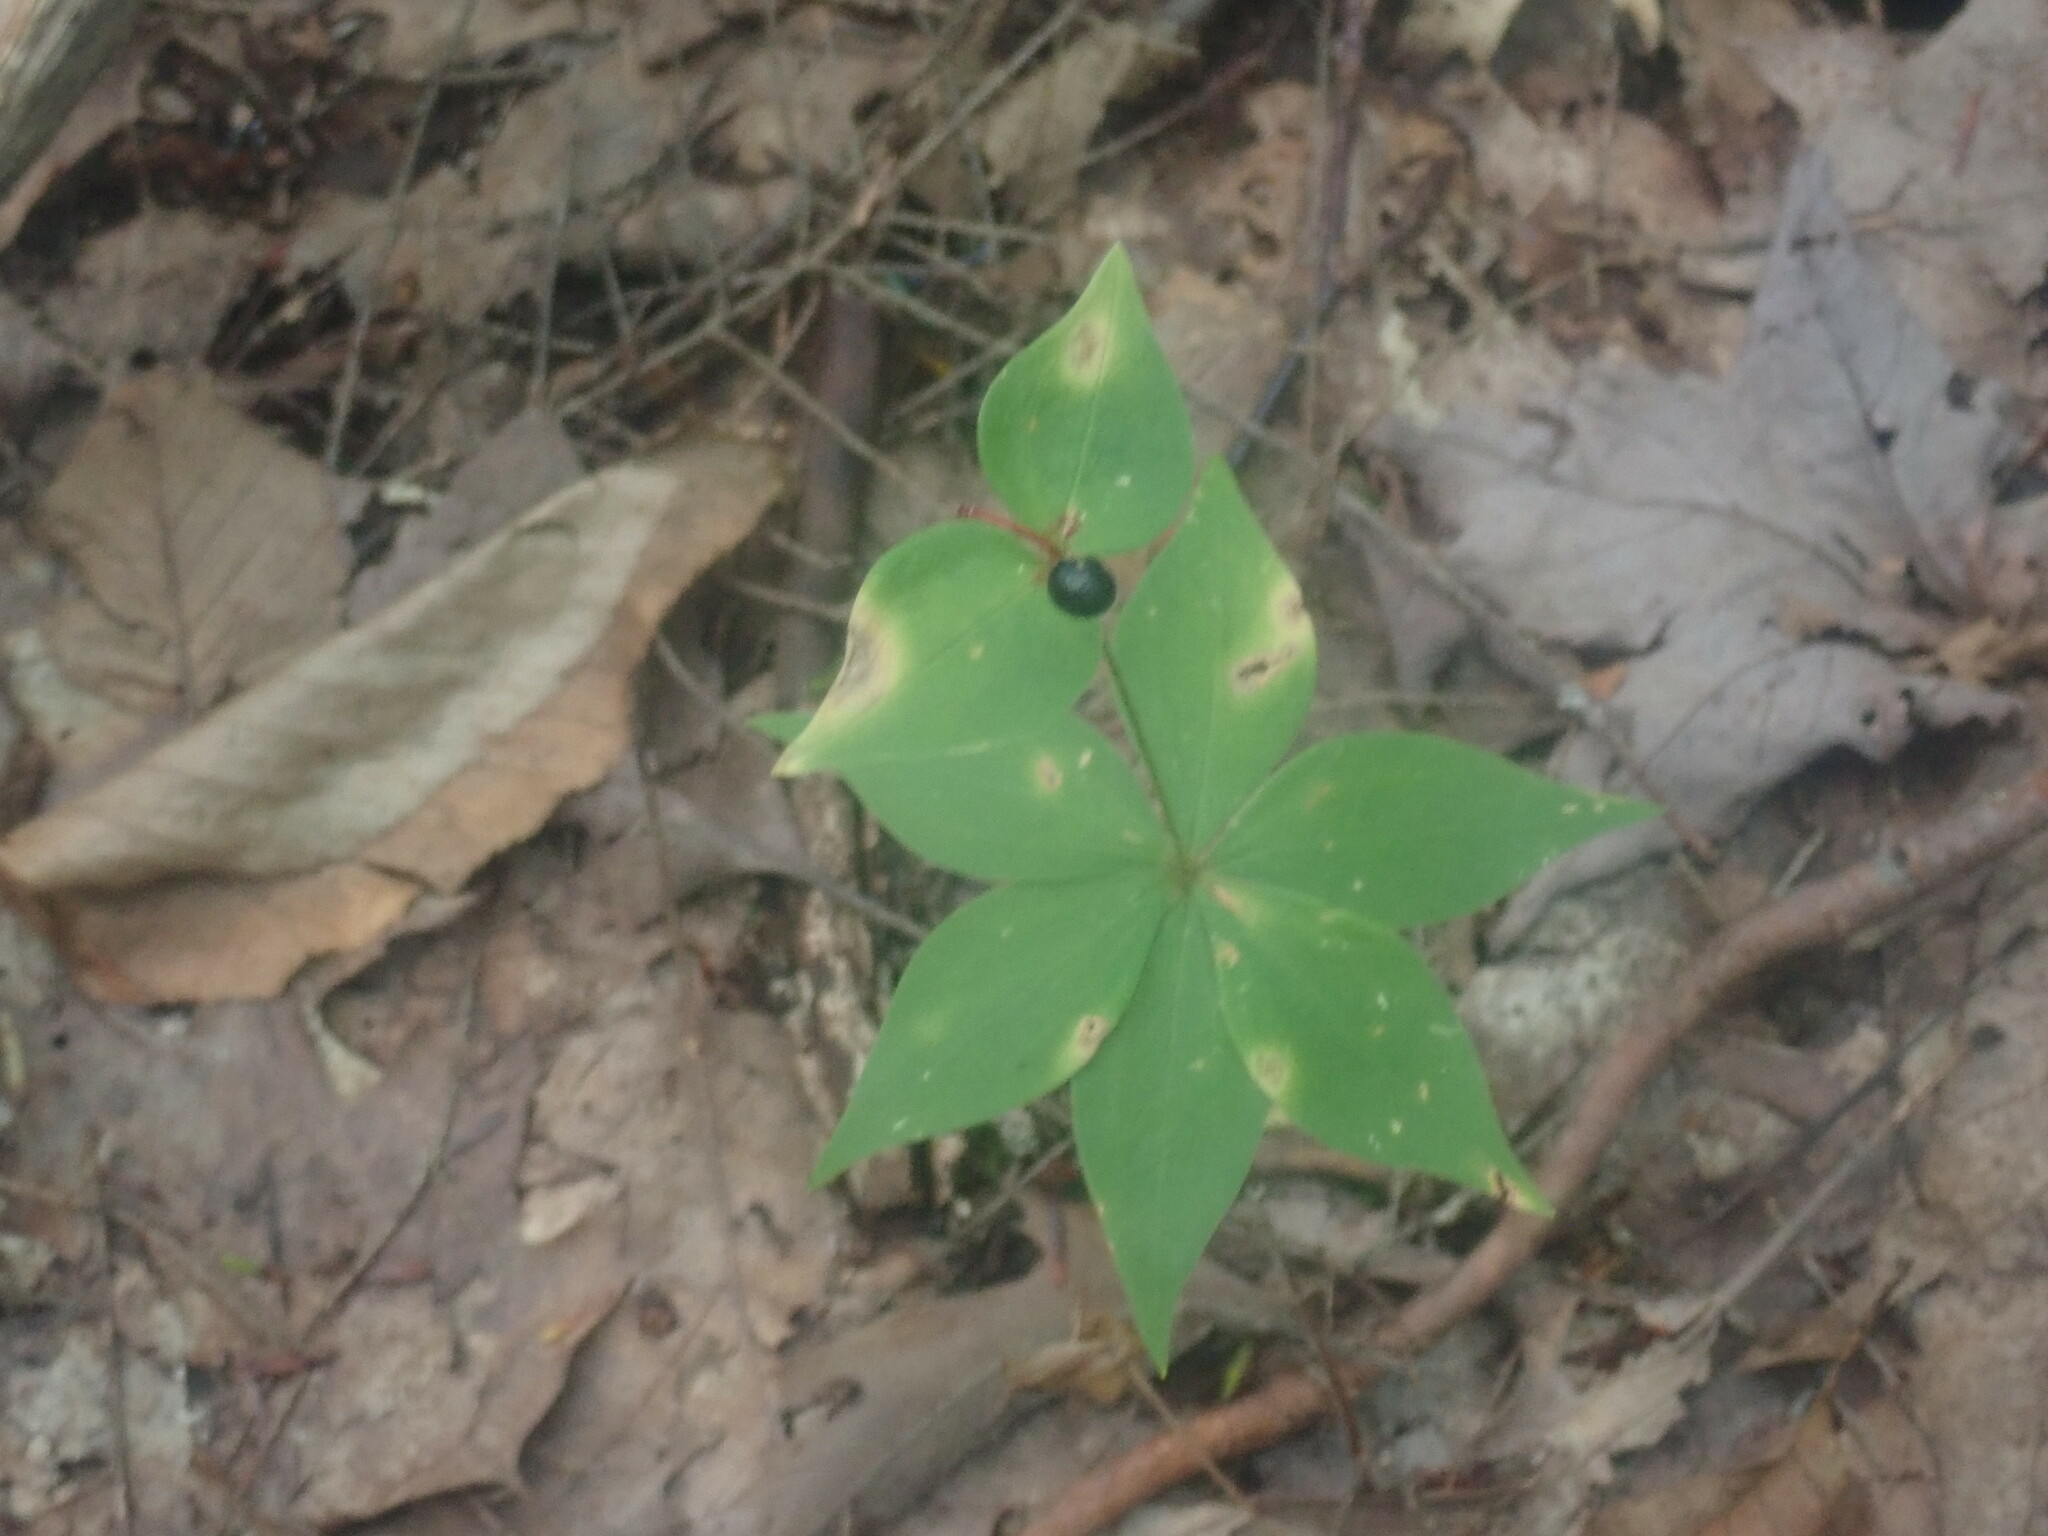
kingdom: Plantae
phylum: Tracheophyta
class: Liliopsida
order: Liliales
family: Liliaceae
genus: Medeola
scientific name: Medeola virginiana
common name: Indian cucumber-root
